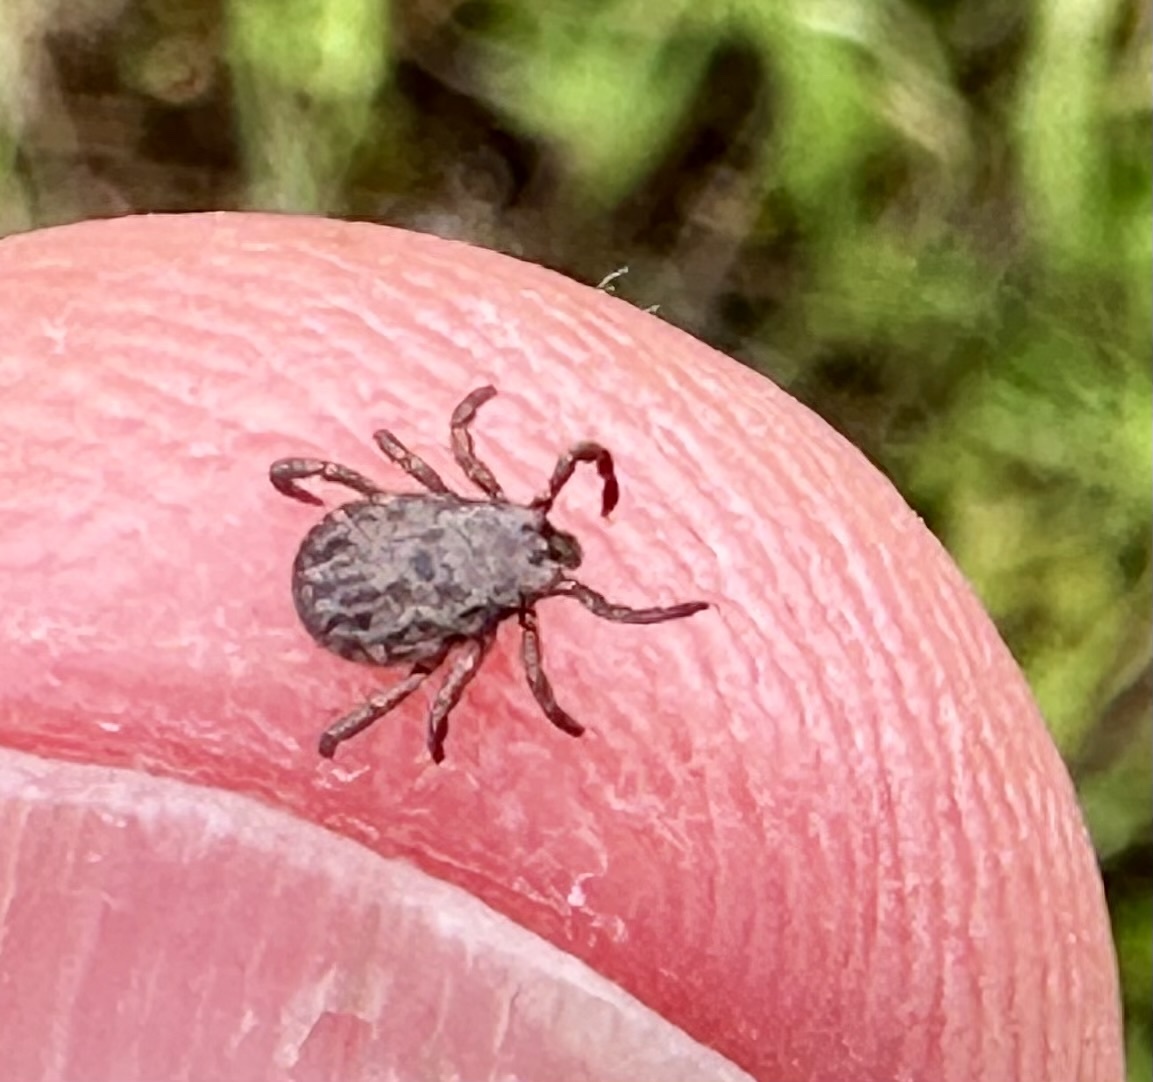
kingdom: Animalia
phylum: Arthropoda
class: Arachnida
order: Ixodida
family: Ixodidae
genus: Dermacentor
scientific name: Dermacentor occidentalis
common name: Net tick
